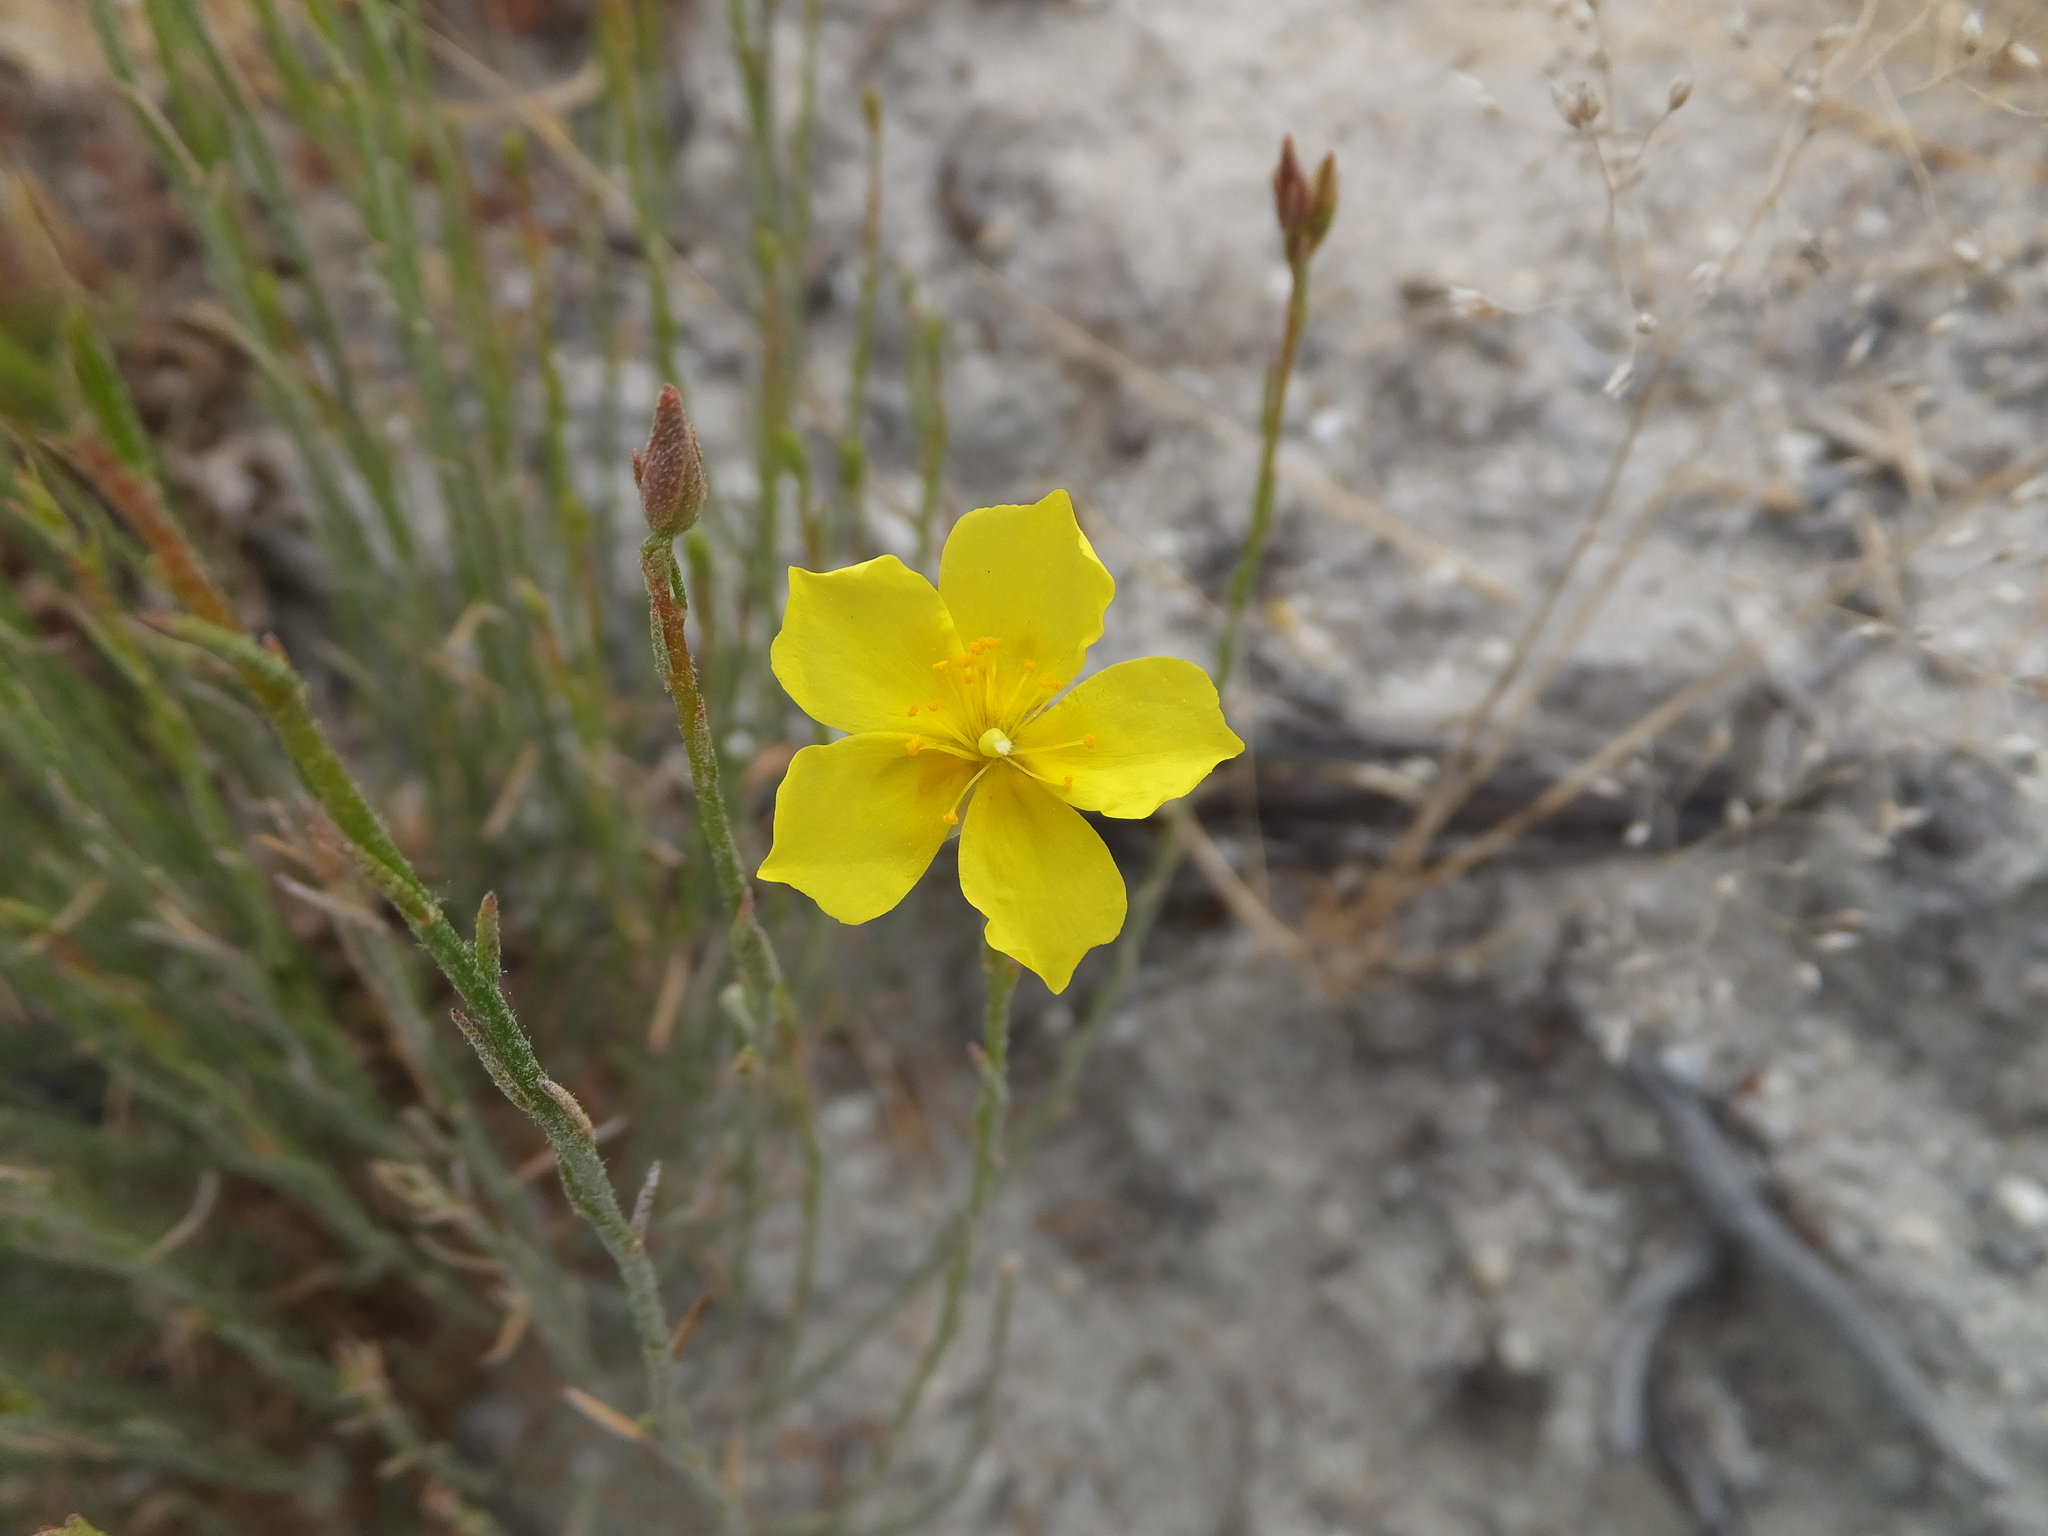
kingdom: Plantae
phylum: Tracheophyta
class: Magnoliopsida
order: Malvales
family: Cistaceae
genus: Crocanthemum
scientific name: Crocanthemum scoparium
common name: Broom-rose
